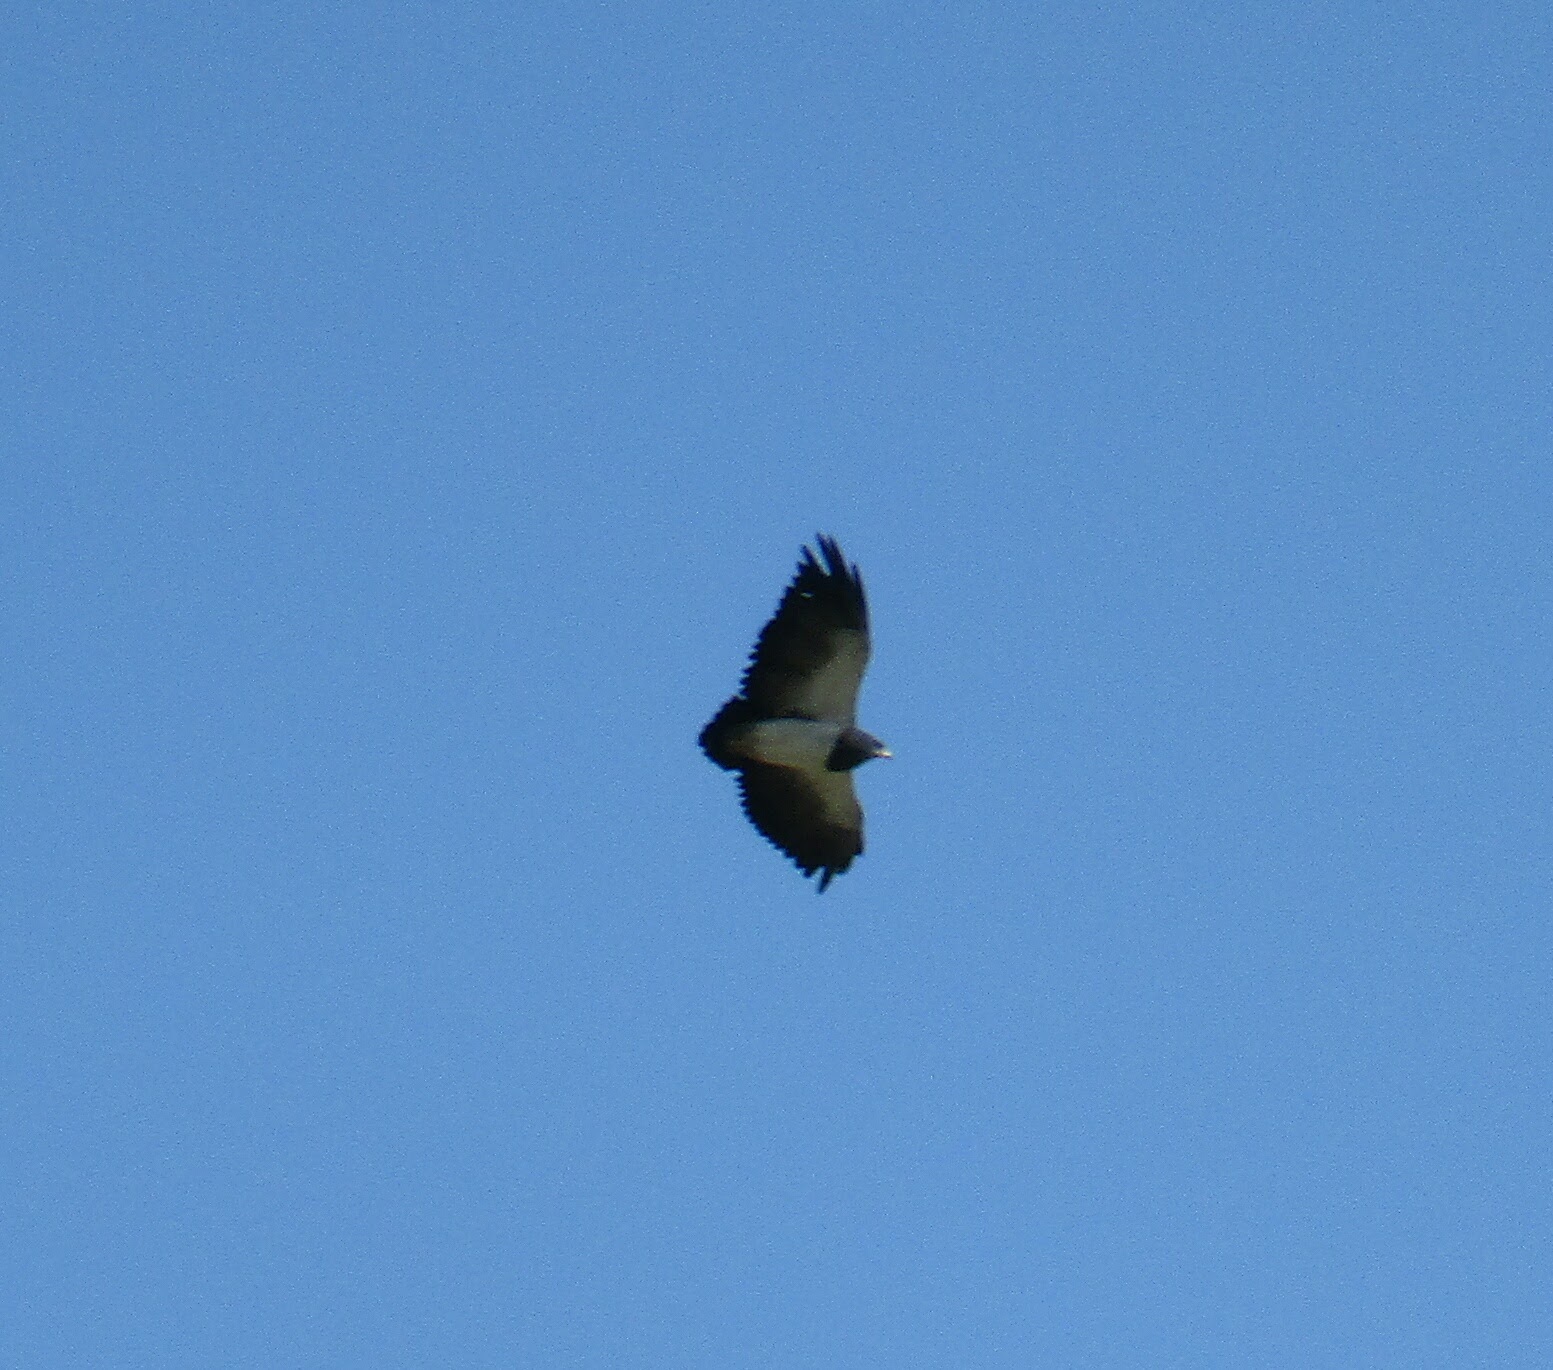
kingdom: Animalia
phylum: Chordata
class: Aves
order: Accipitriformes
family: Accipitridae
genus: Geranoaetus
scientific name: Geranoaetus melanoleucus
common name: Black-chested buzzard-eagle
